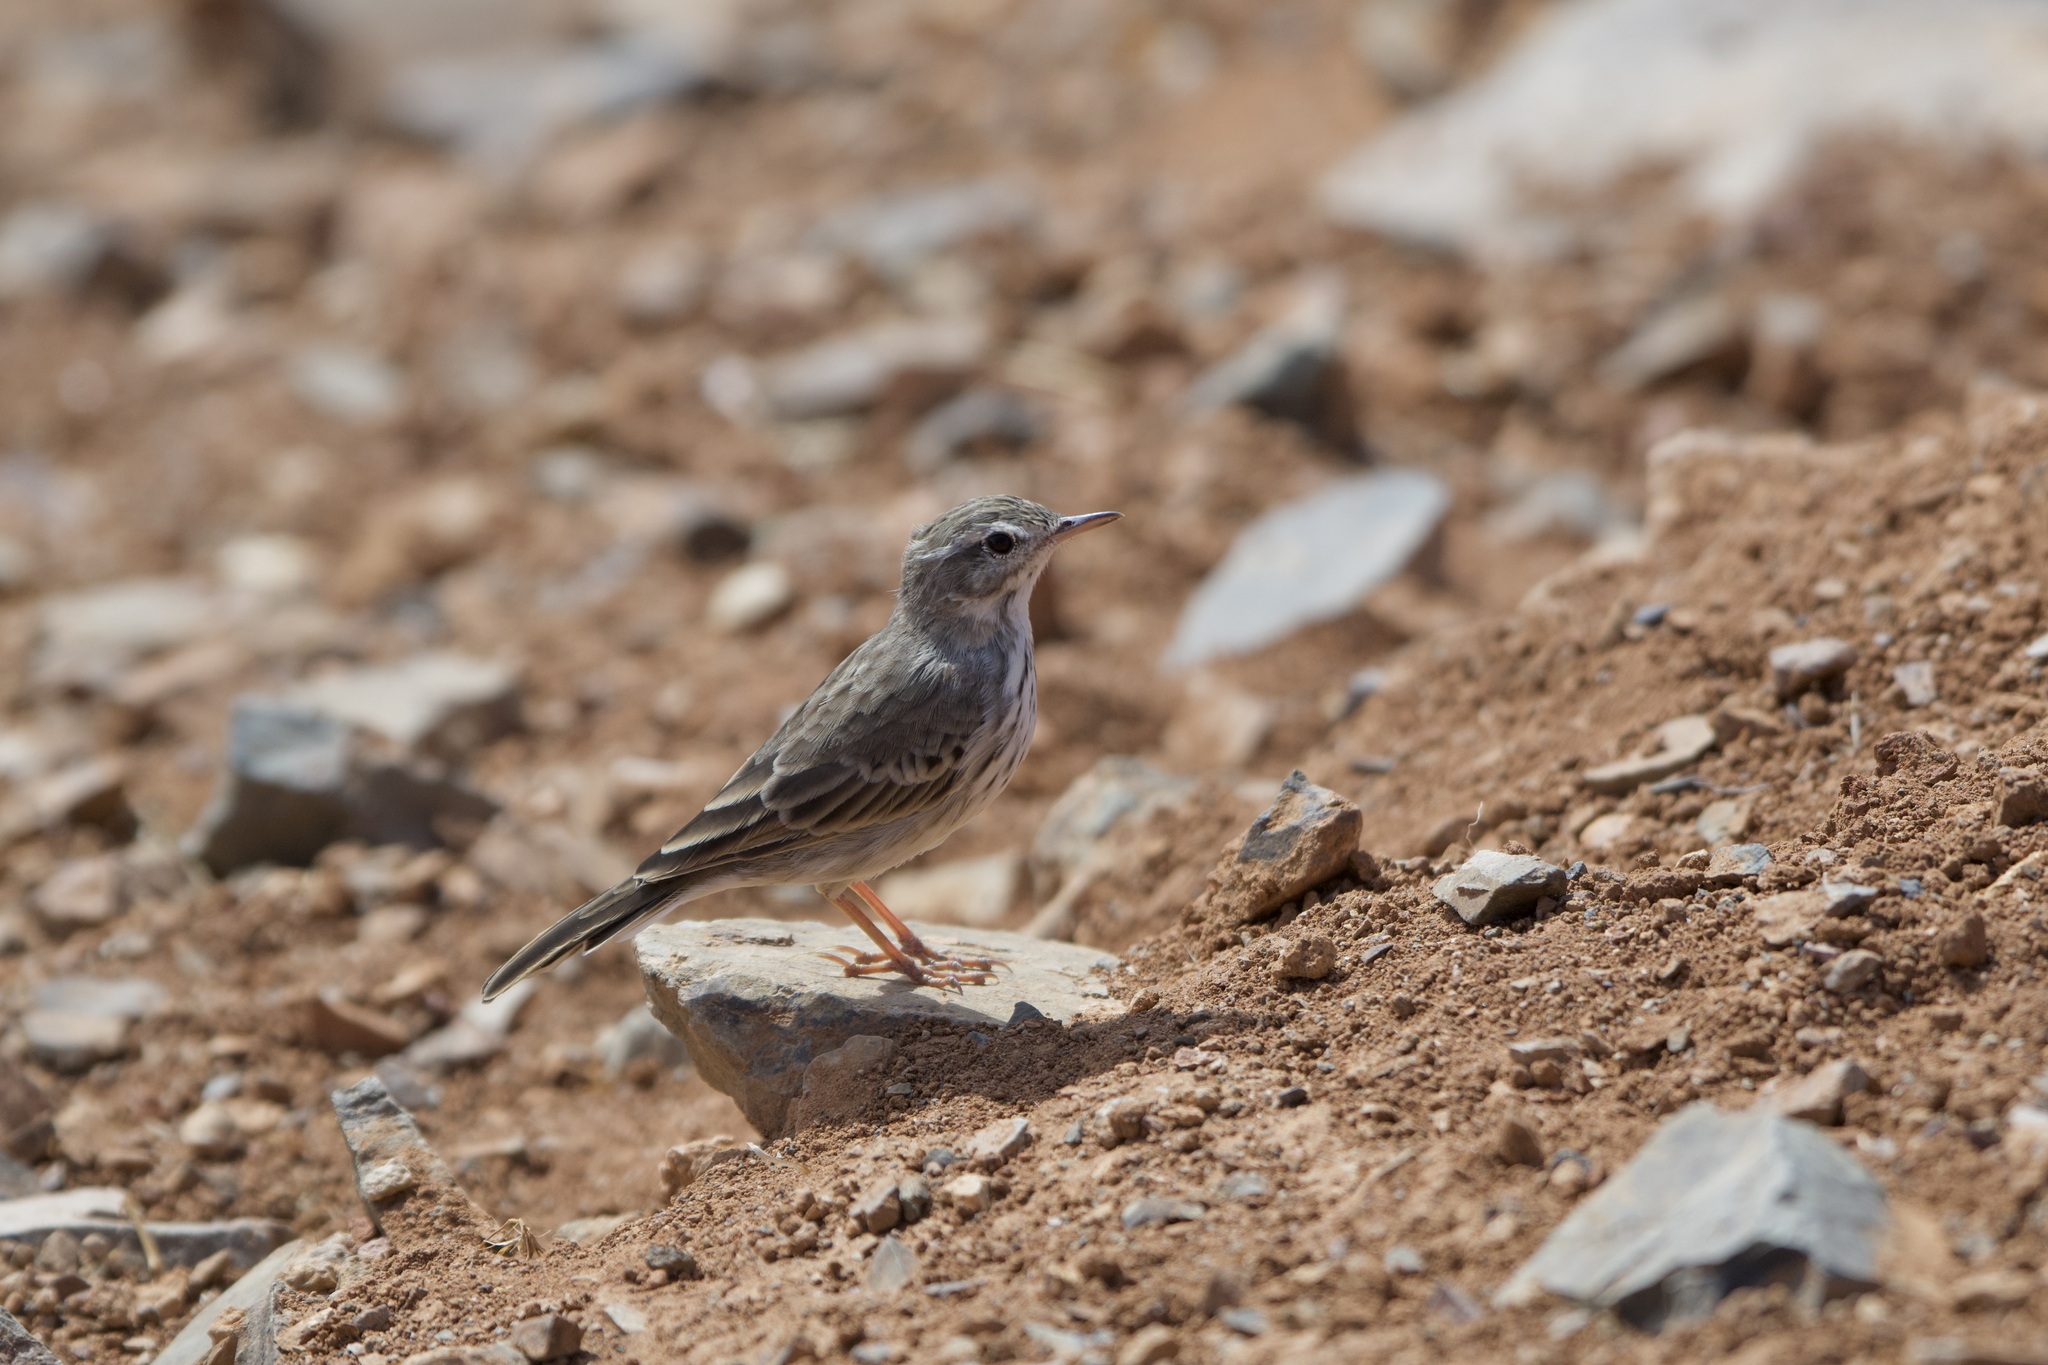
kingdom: Animalia
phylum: Chordata
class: Aves
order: Passeriformes
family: Motacillidae
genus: Anthus
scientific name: Anthus berthelotii
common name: Berthelot's pipit
